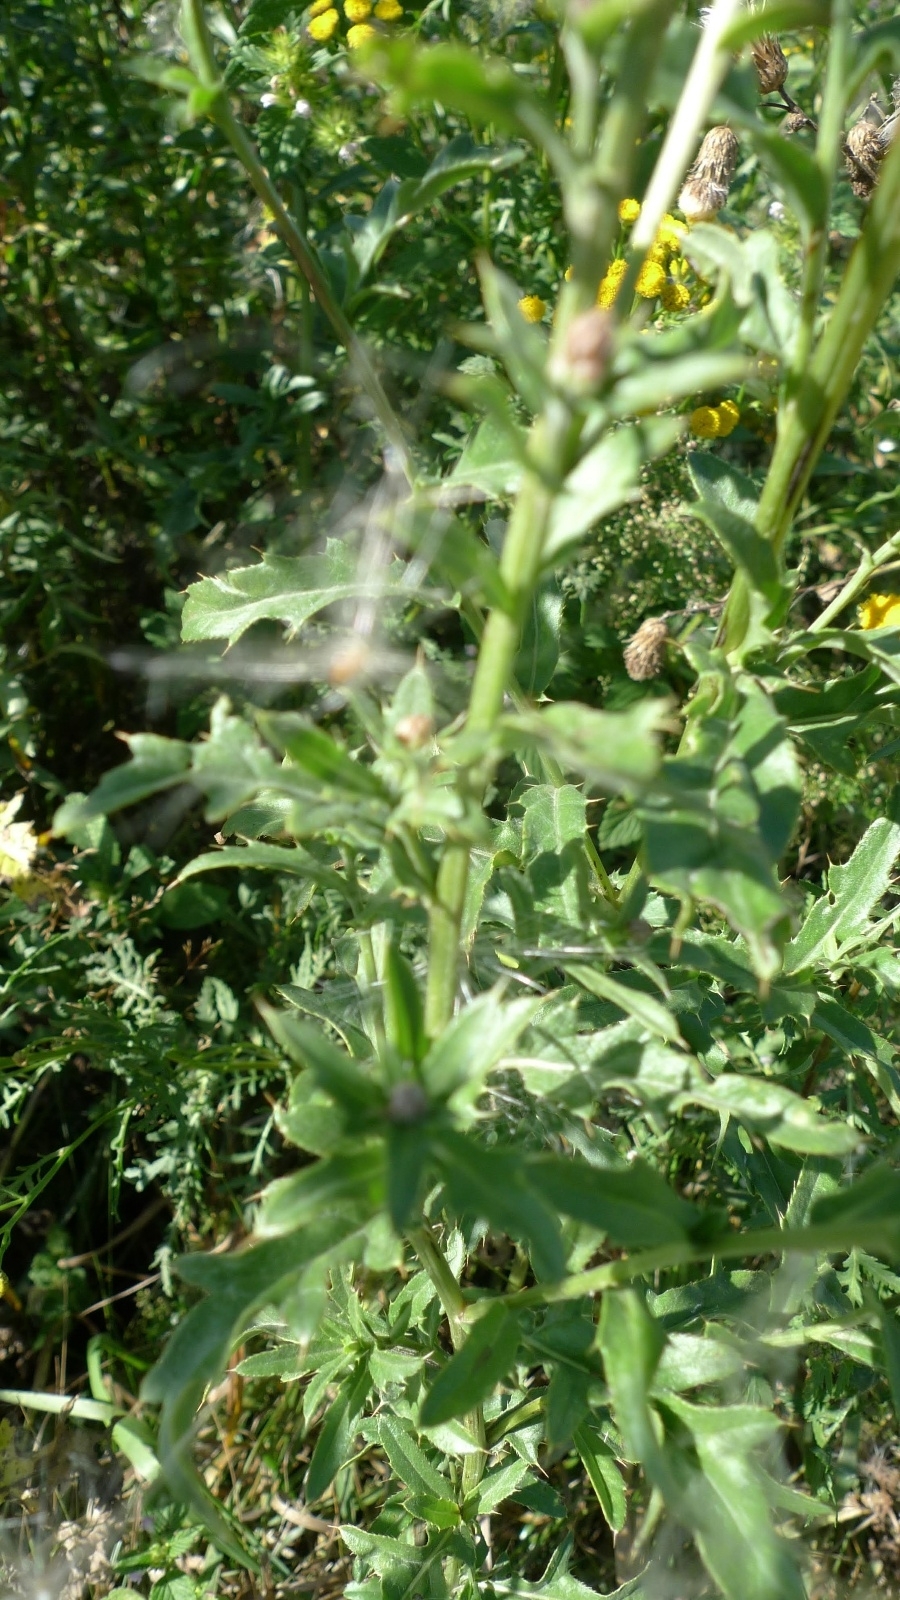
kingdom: Plantae
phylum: Tracheophyta
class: Magnoliopsida
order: Asterales
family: Asteraceae
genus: Cirsium
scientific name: Cirsium arvense
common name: Creeping thistle
